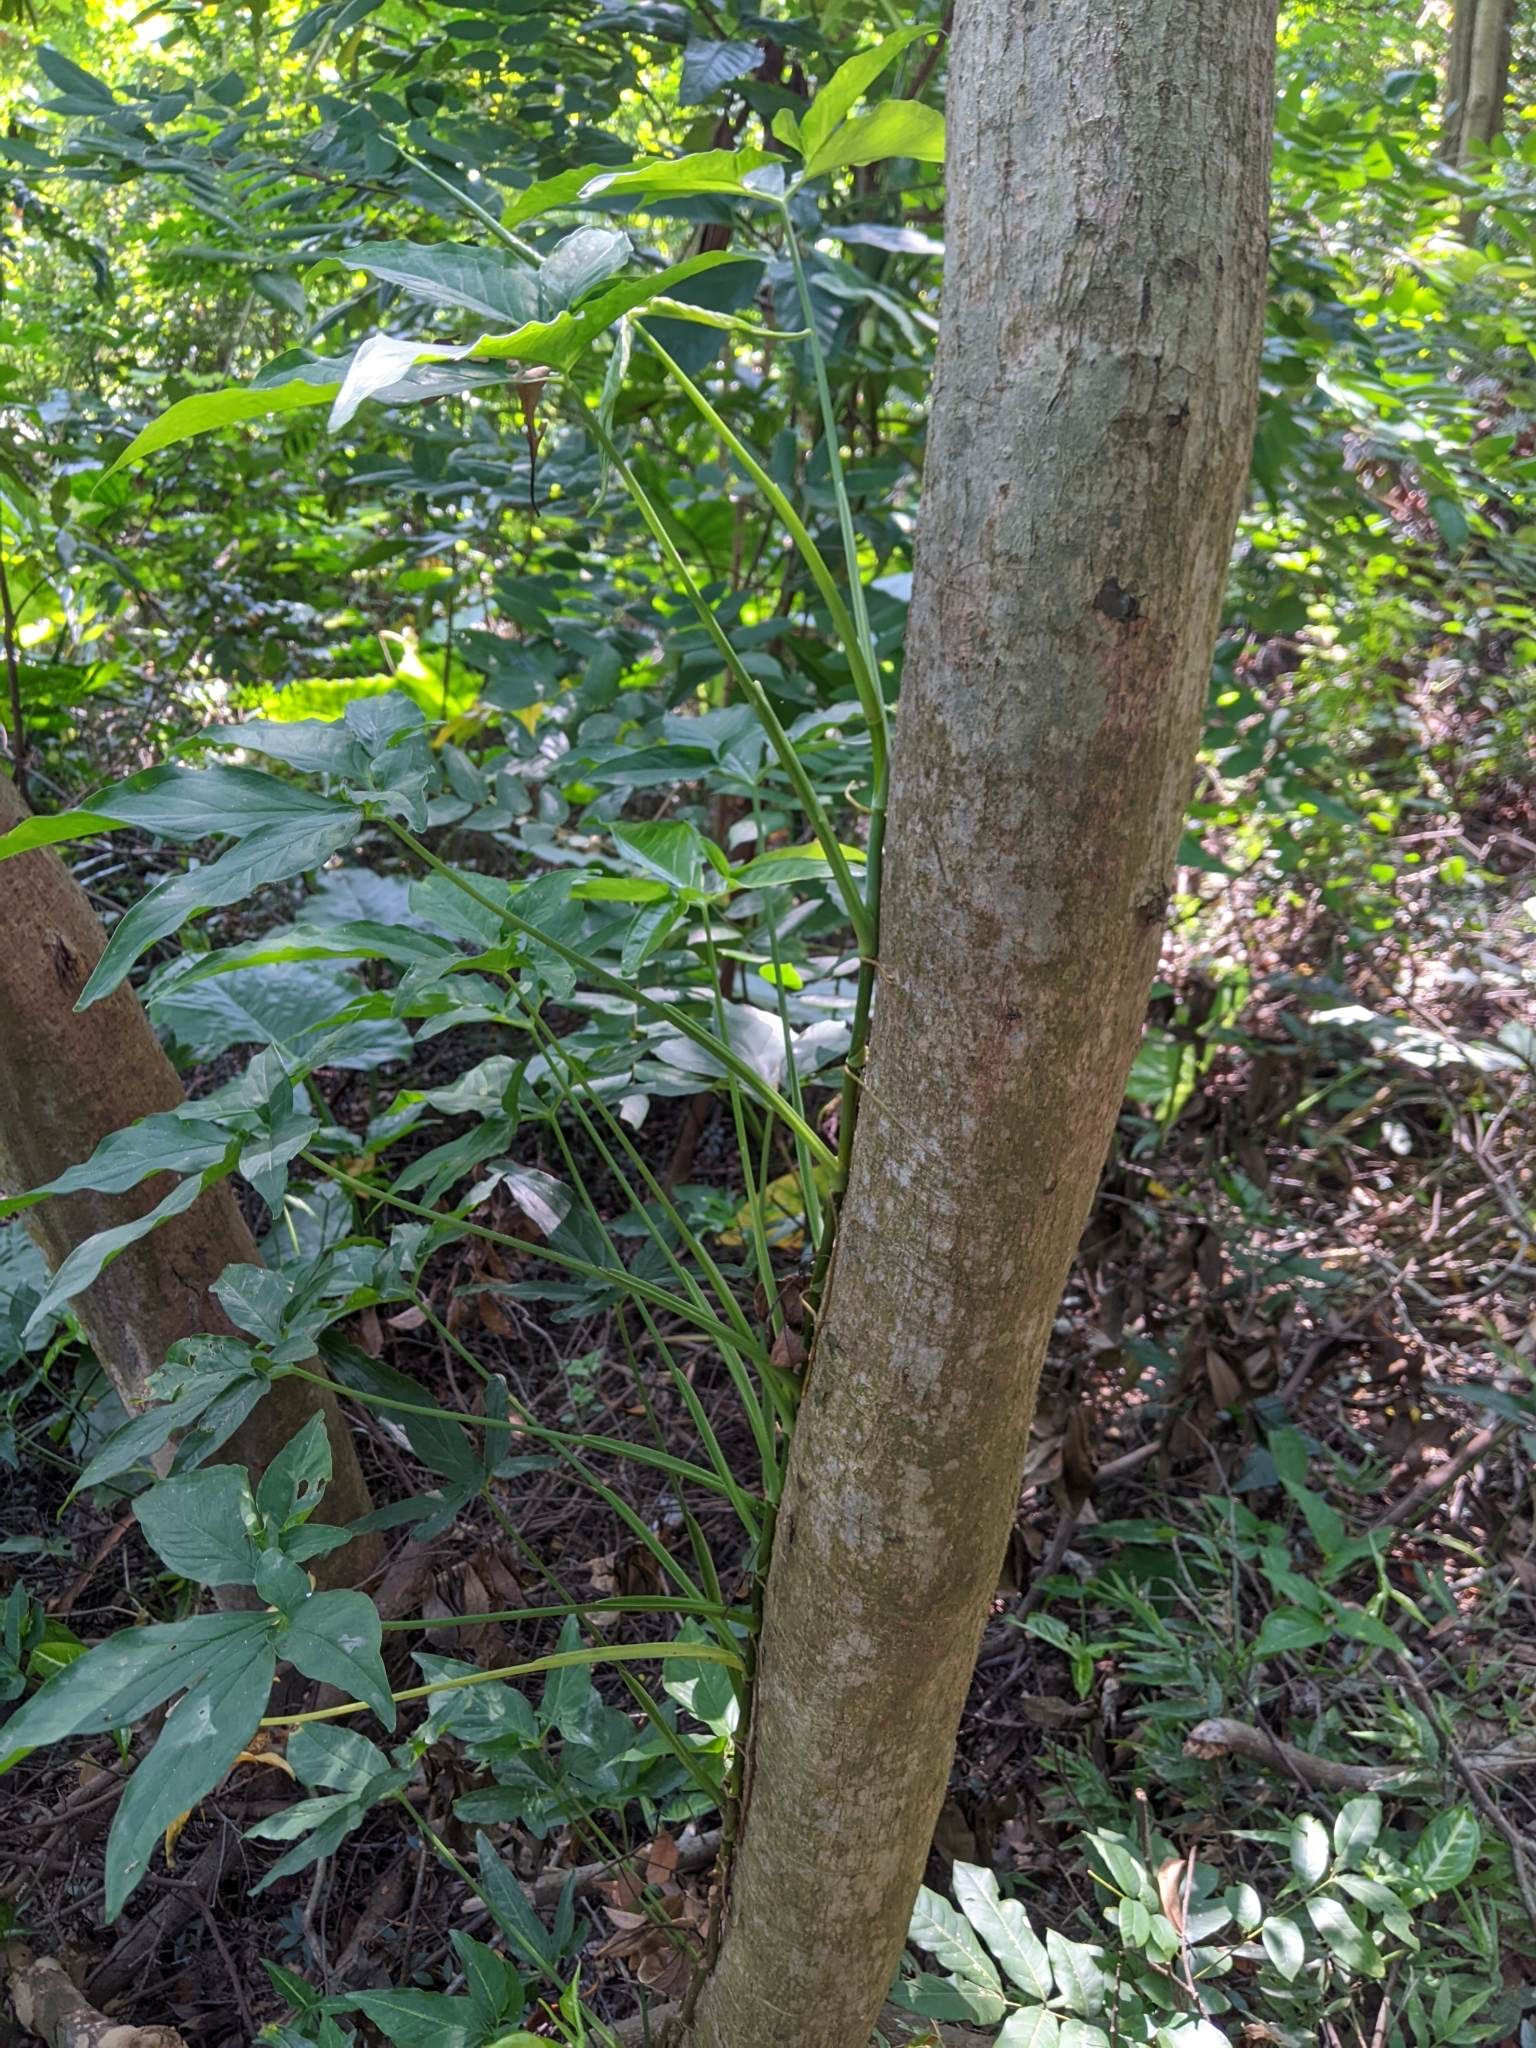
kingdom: Plantae
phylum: Tracheophyta
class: Liliopsida
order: Alismatales
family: Araceae
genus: Syngonium
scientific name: Syngonium angustatum
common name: Fivefingers
